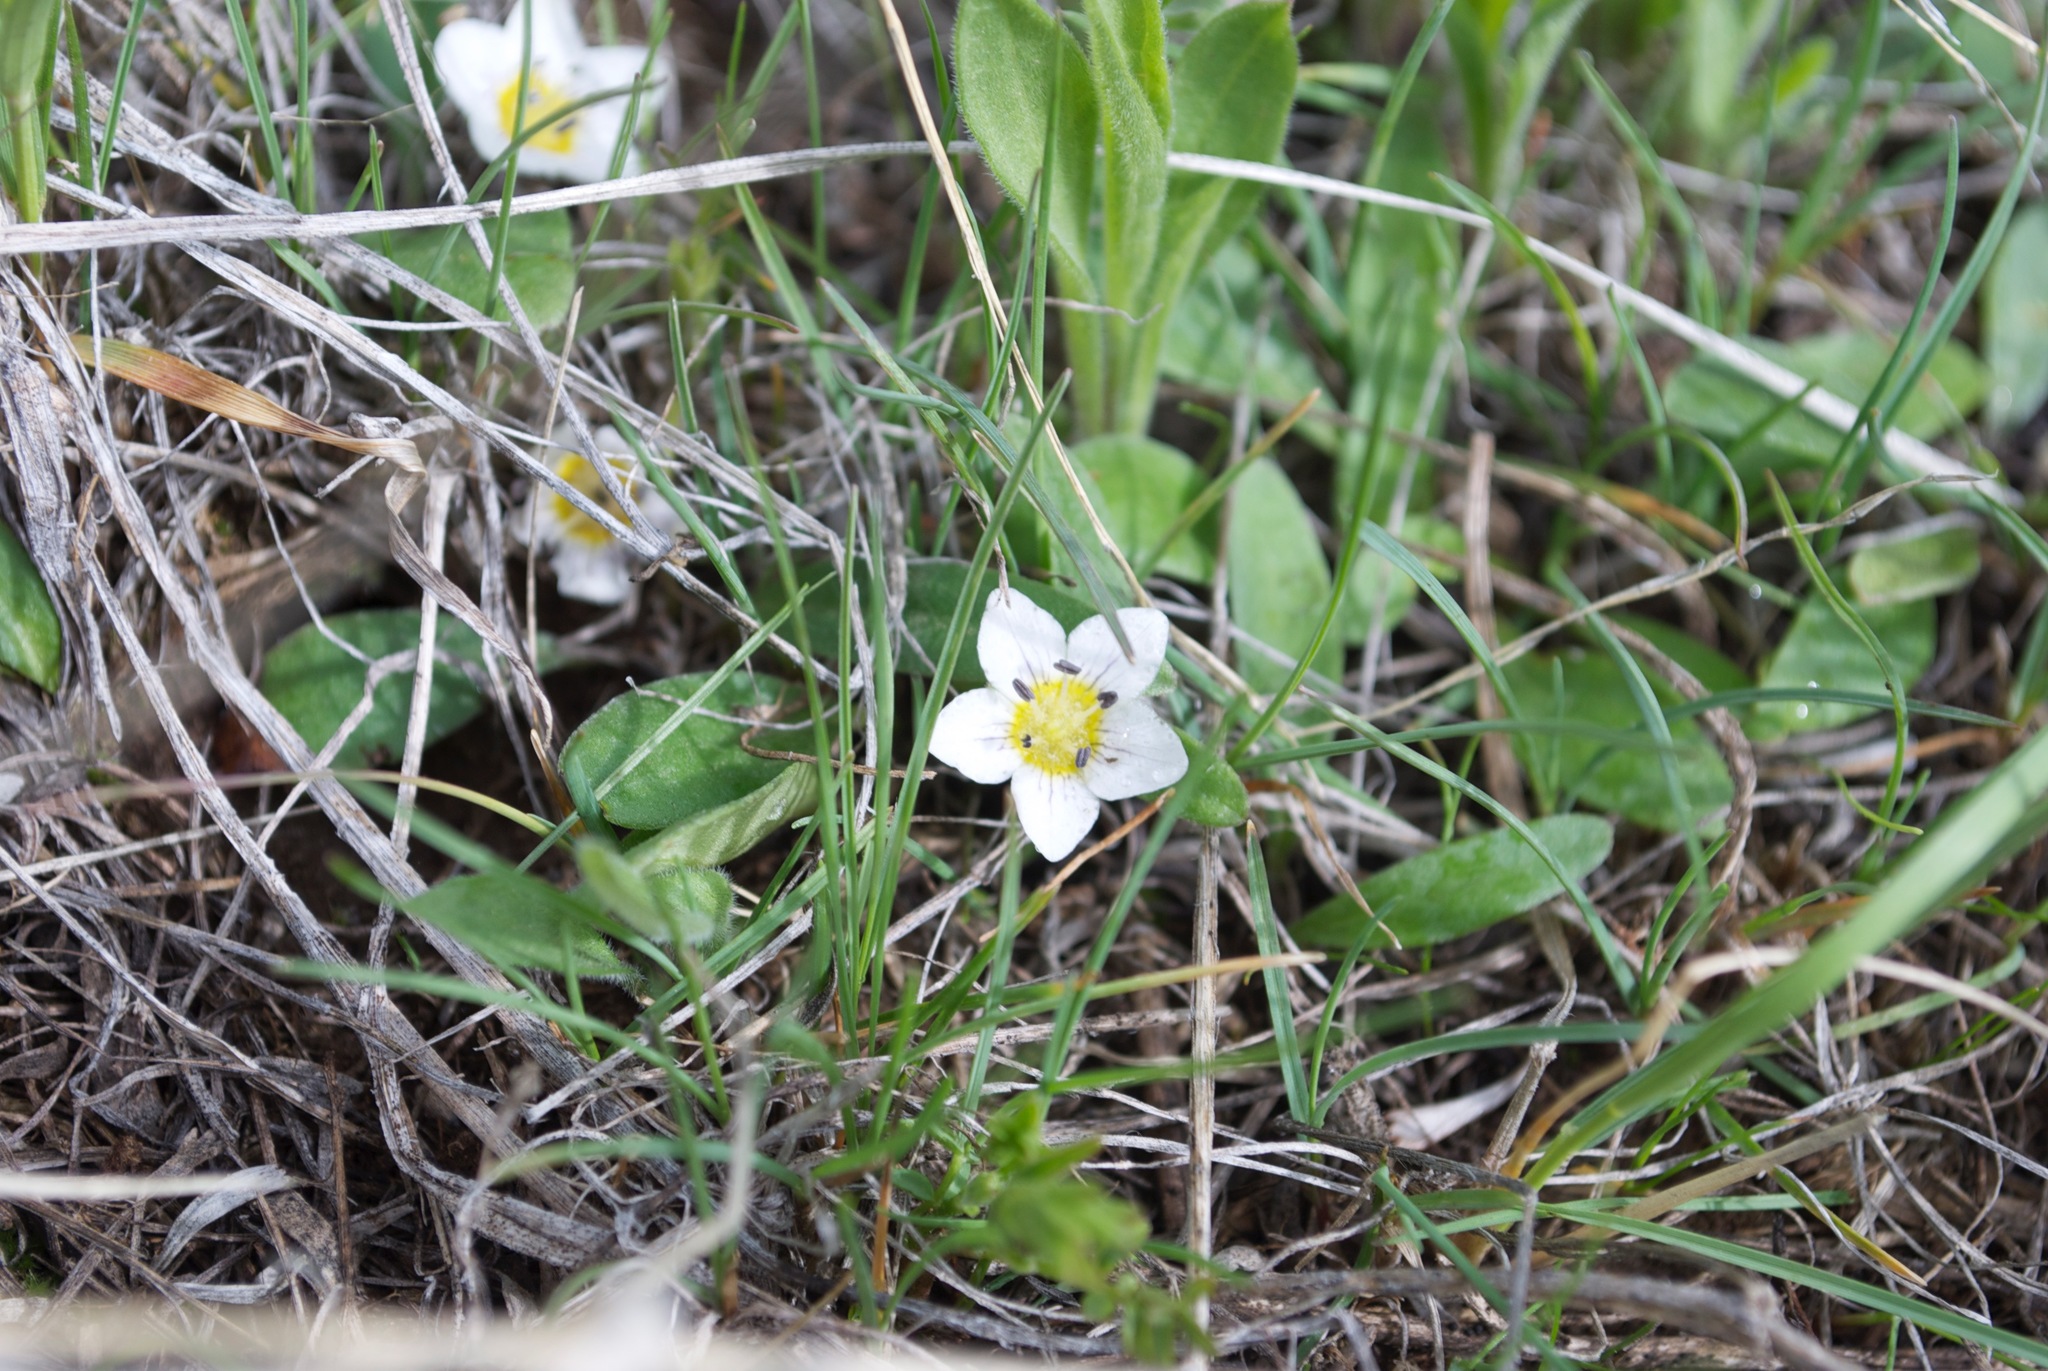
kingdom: Plantae
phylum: Tracheophyta
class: Magnoliopsida
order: Boraginales
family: Hydrophyllaceae
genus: Hesperochiron
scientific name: Hesperochiron pumilus
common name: Dwarf hesperochiron
